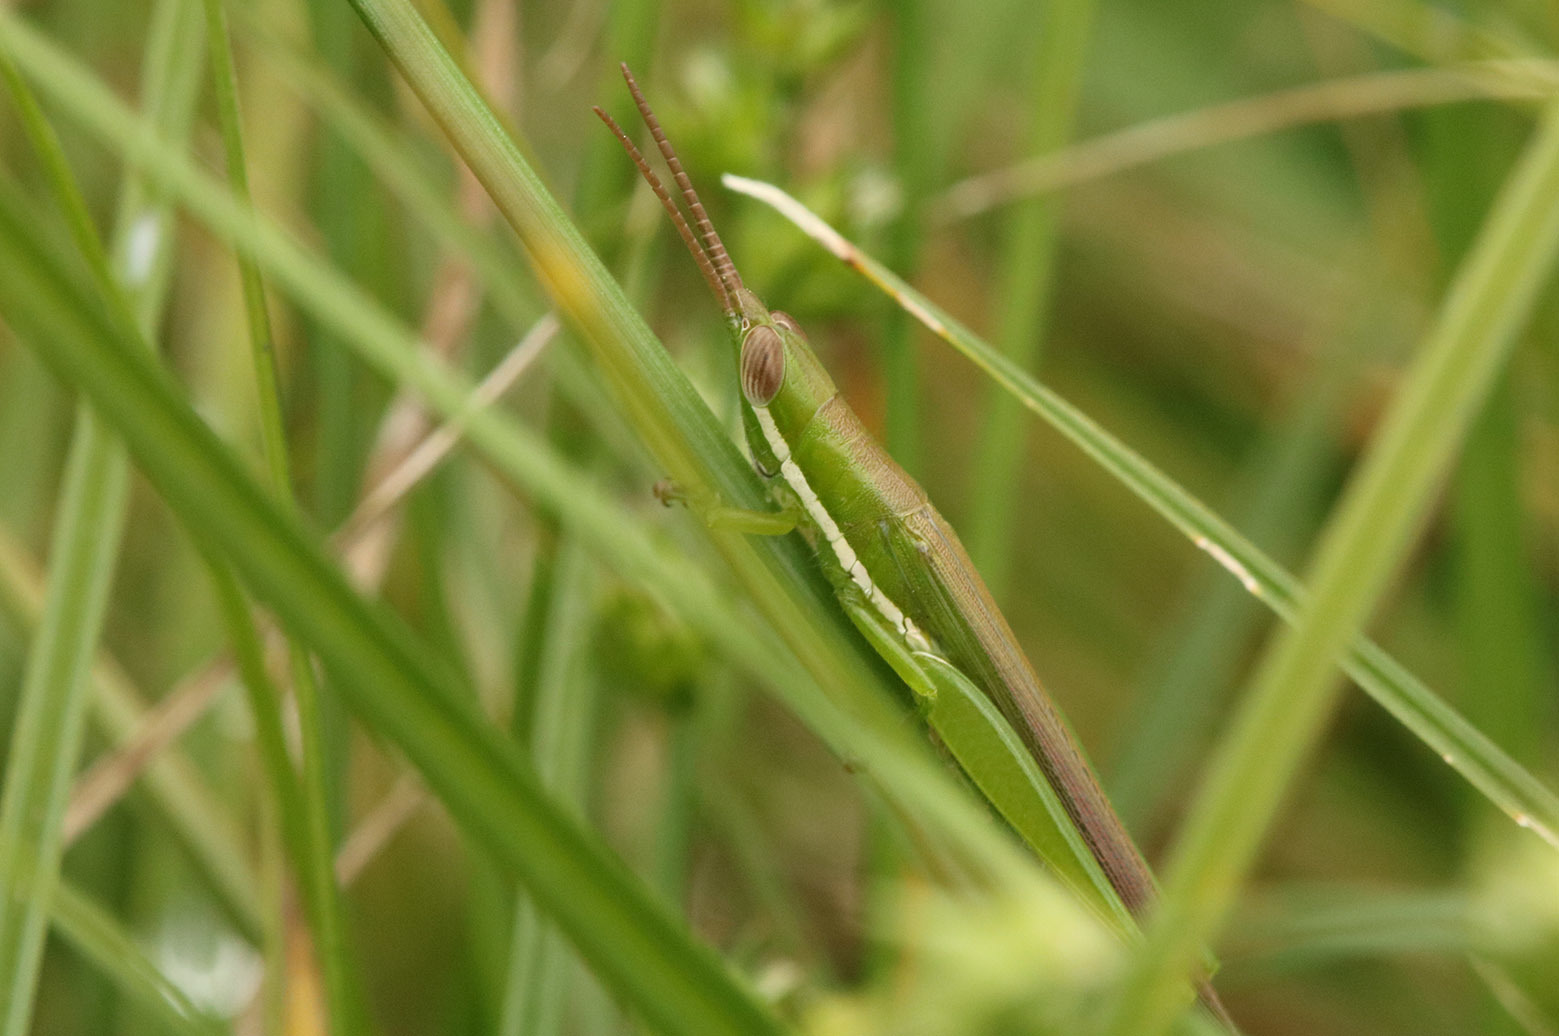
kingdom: Animalia
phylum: Arthropoda
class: Insecta
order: Orthoptera
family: Acrididae
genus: Tucayaca
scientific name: Tucayaca gracilis
